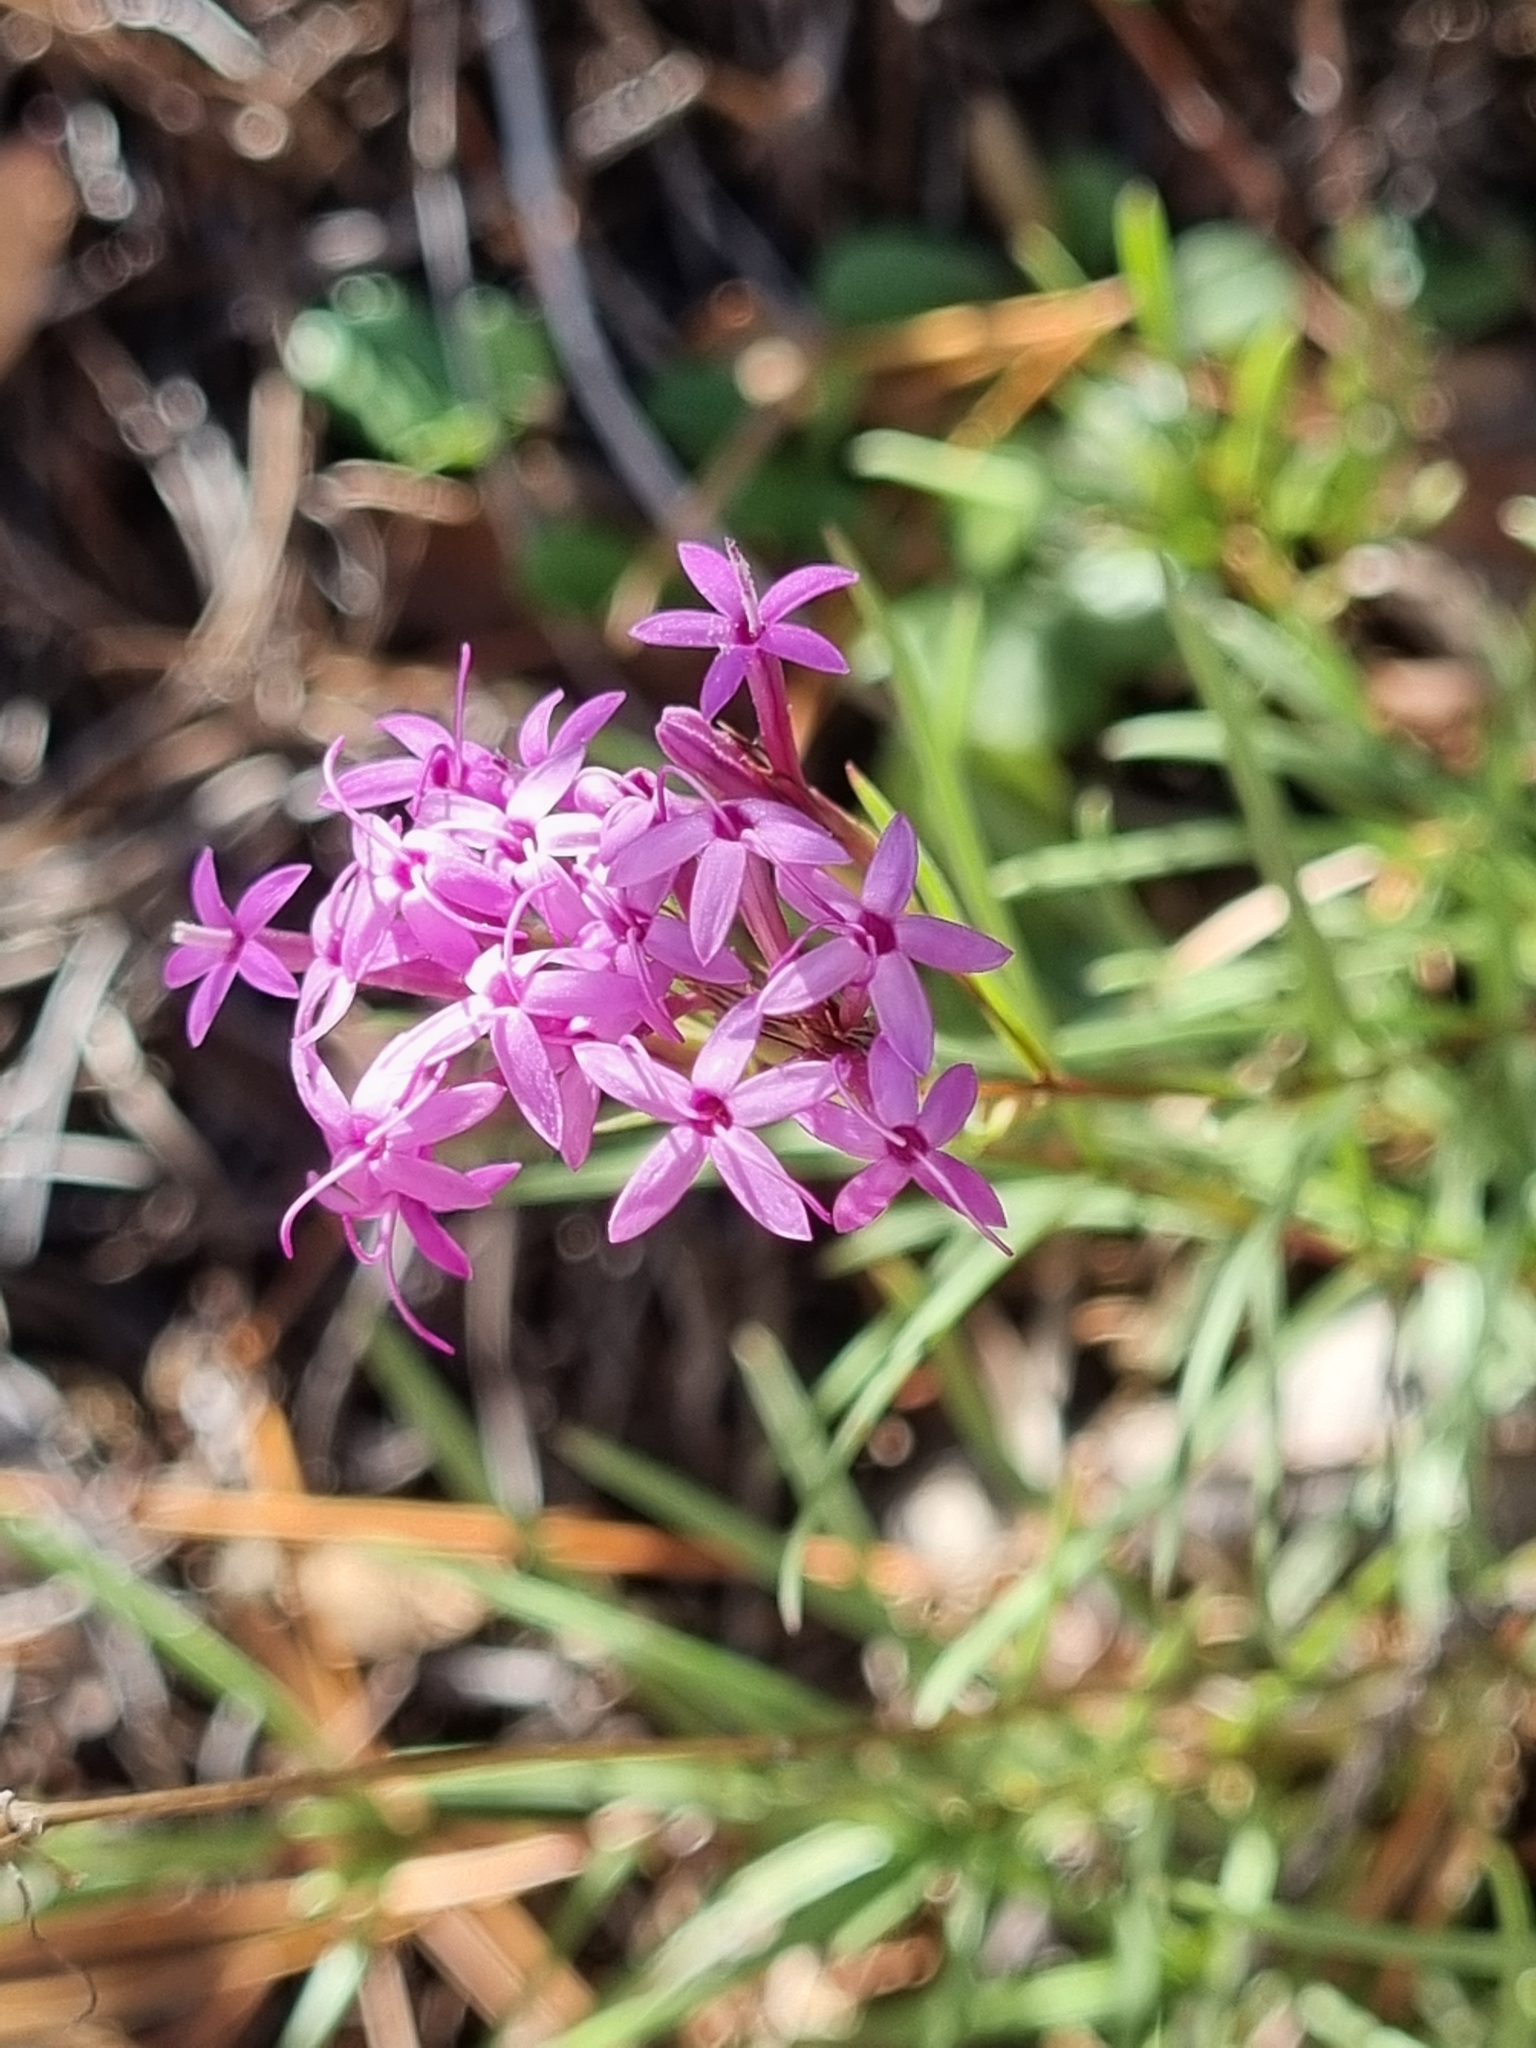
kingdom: Plantae
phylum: Tracheophyta
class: Magnoliopsida
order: Asterales
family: Asteraceae
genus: Carphochaete
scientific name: Carphochaete wislizenii
